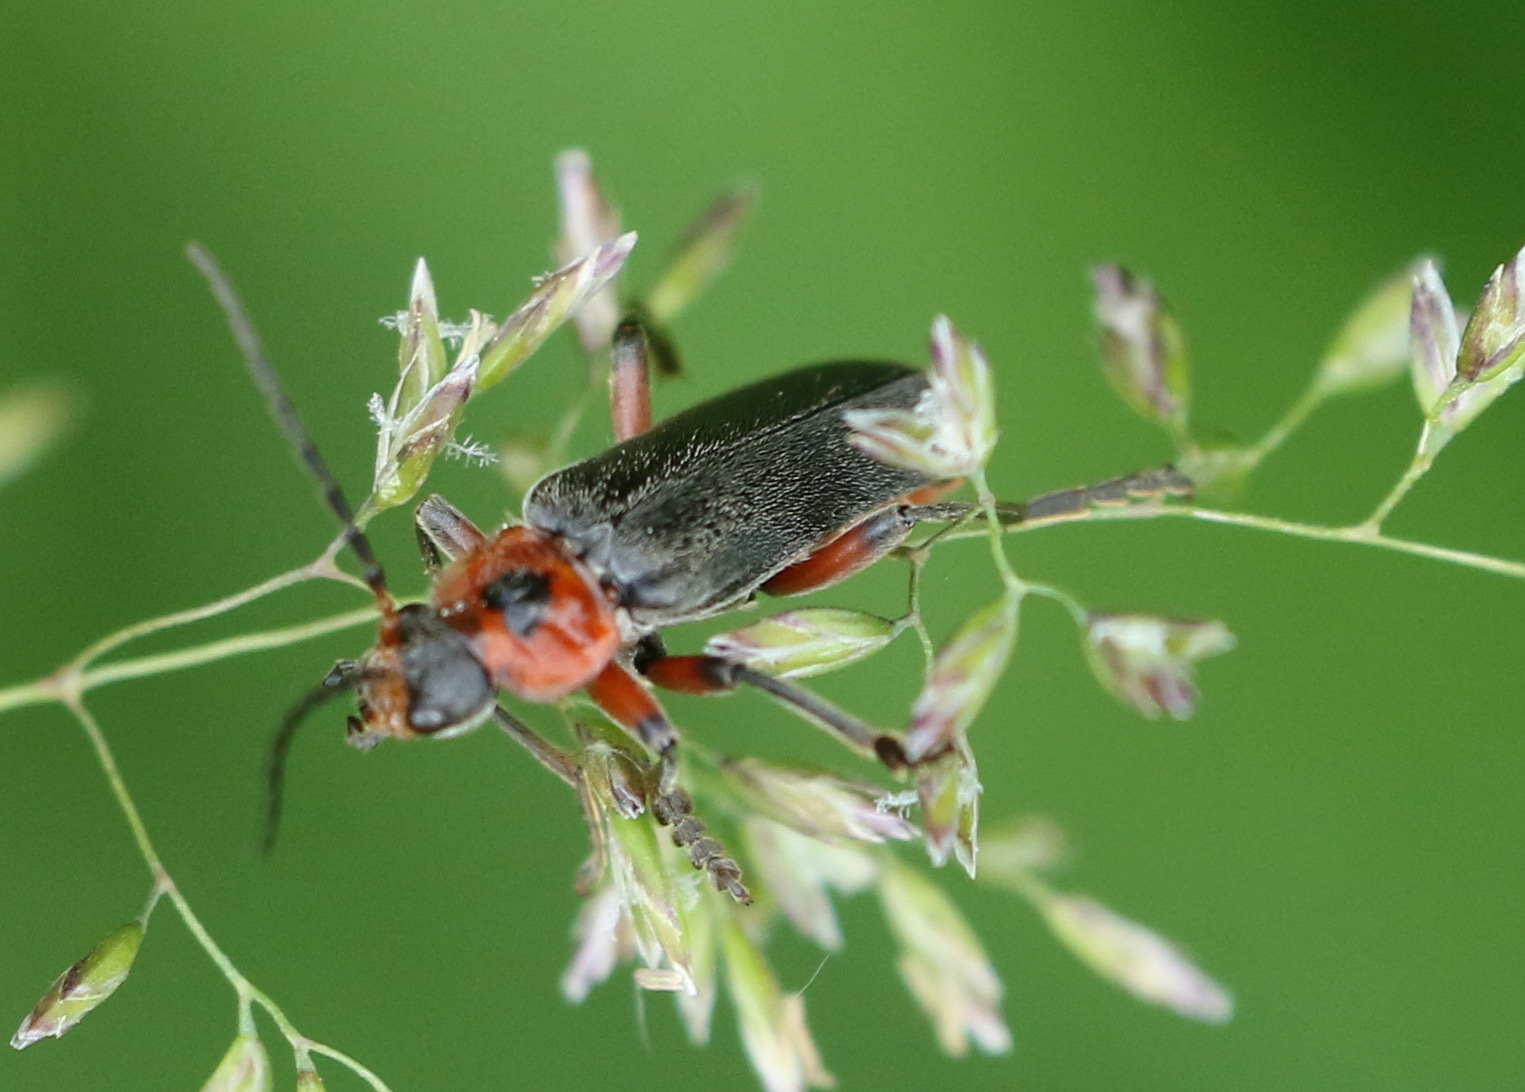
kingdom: Animalia
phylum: Arthropoda
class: Insecta
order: Coleoptera
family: Cantharidae
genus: Cantharis
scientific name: Cantharis rustica
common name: Soldier beetle
